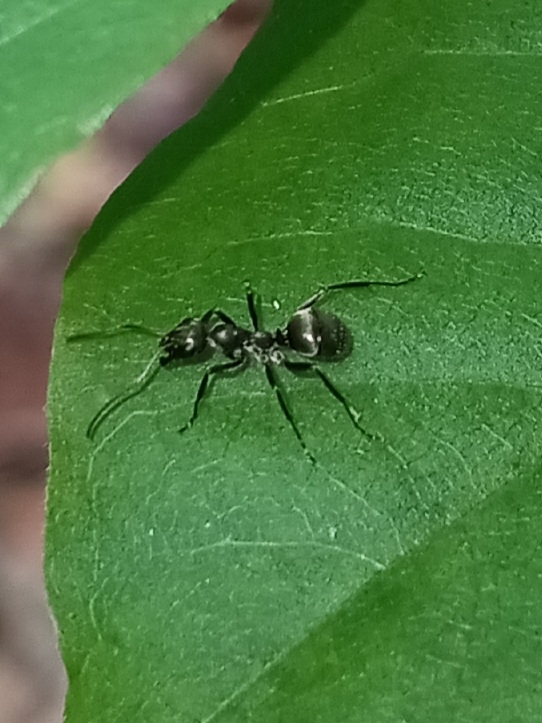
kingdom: Animalia
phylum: Arthropoda
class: Insecta
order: Hymenoptera
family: Formicidae
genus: Formica
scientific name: Formica subsericea
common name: Silky field ant
